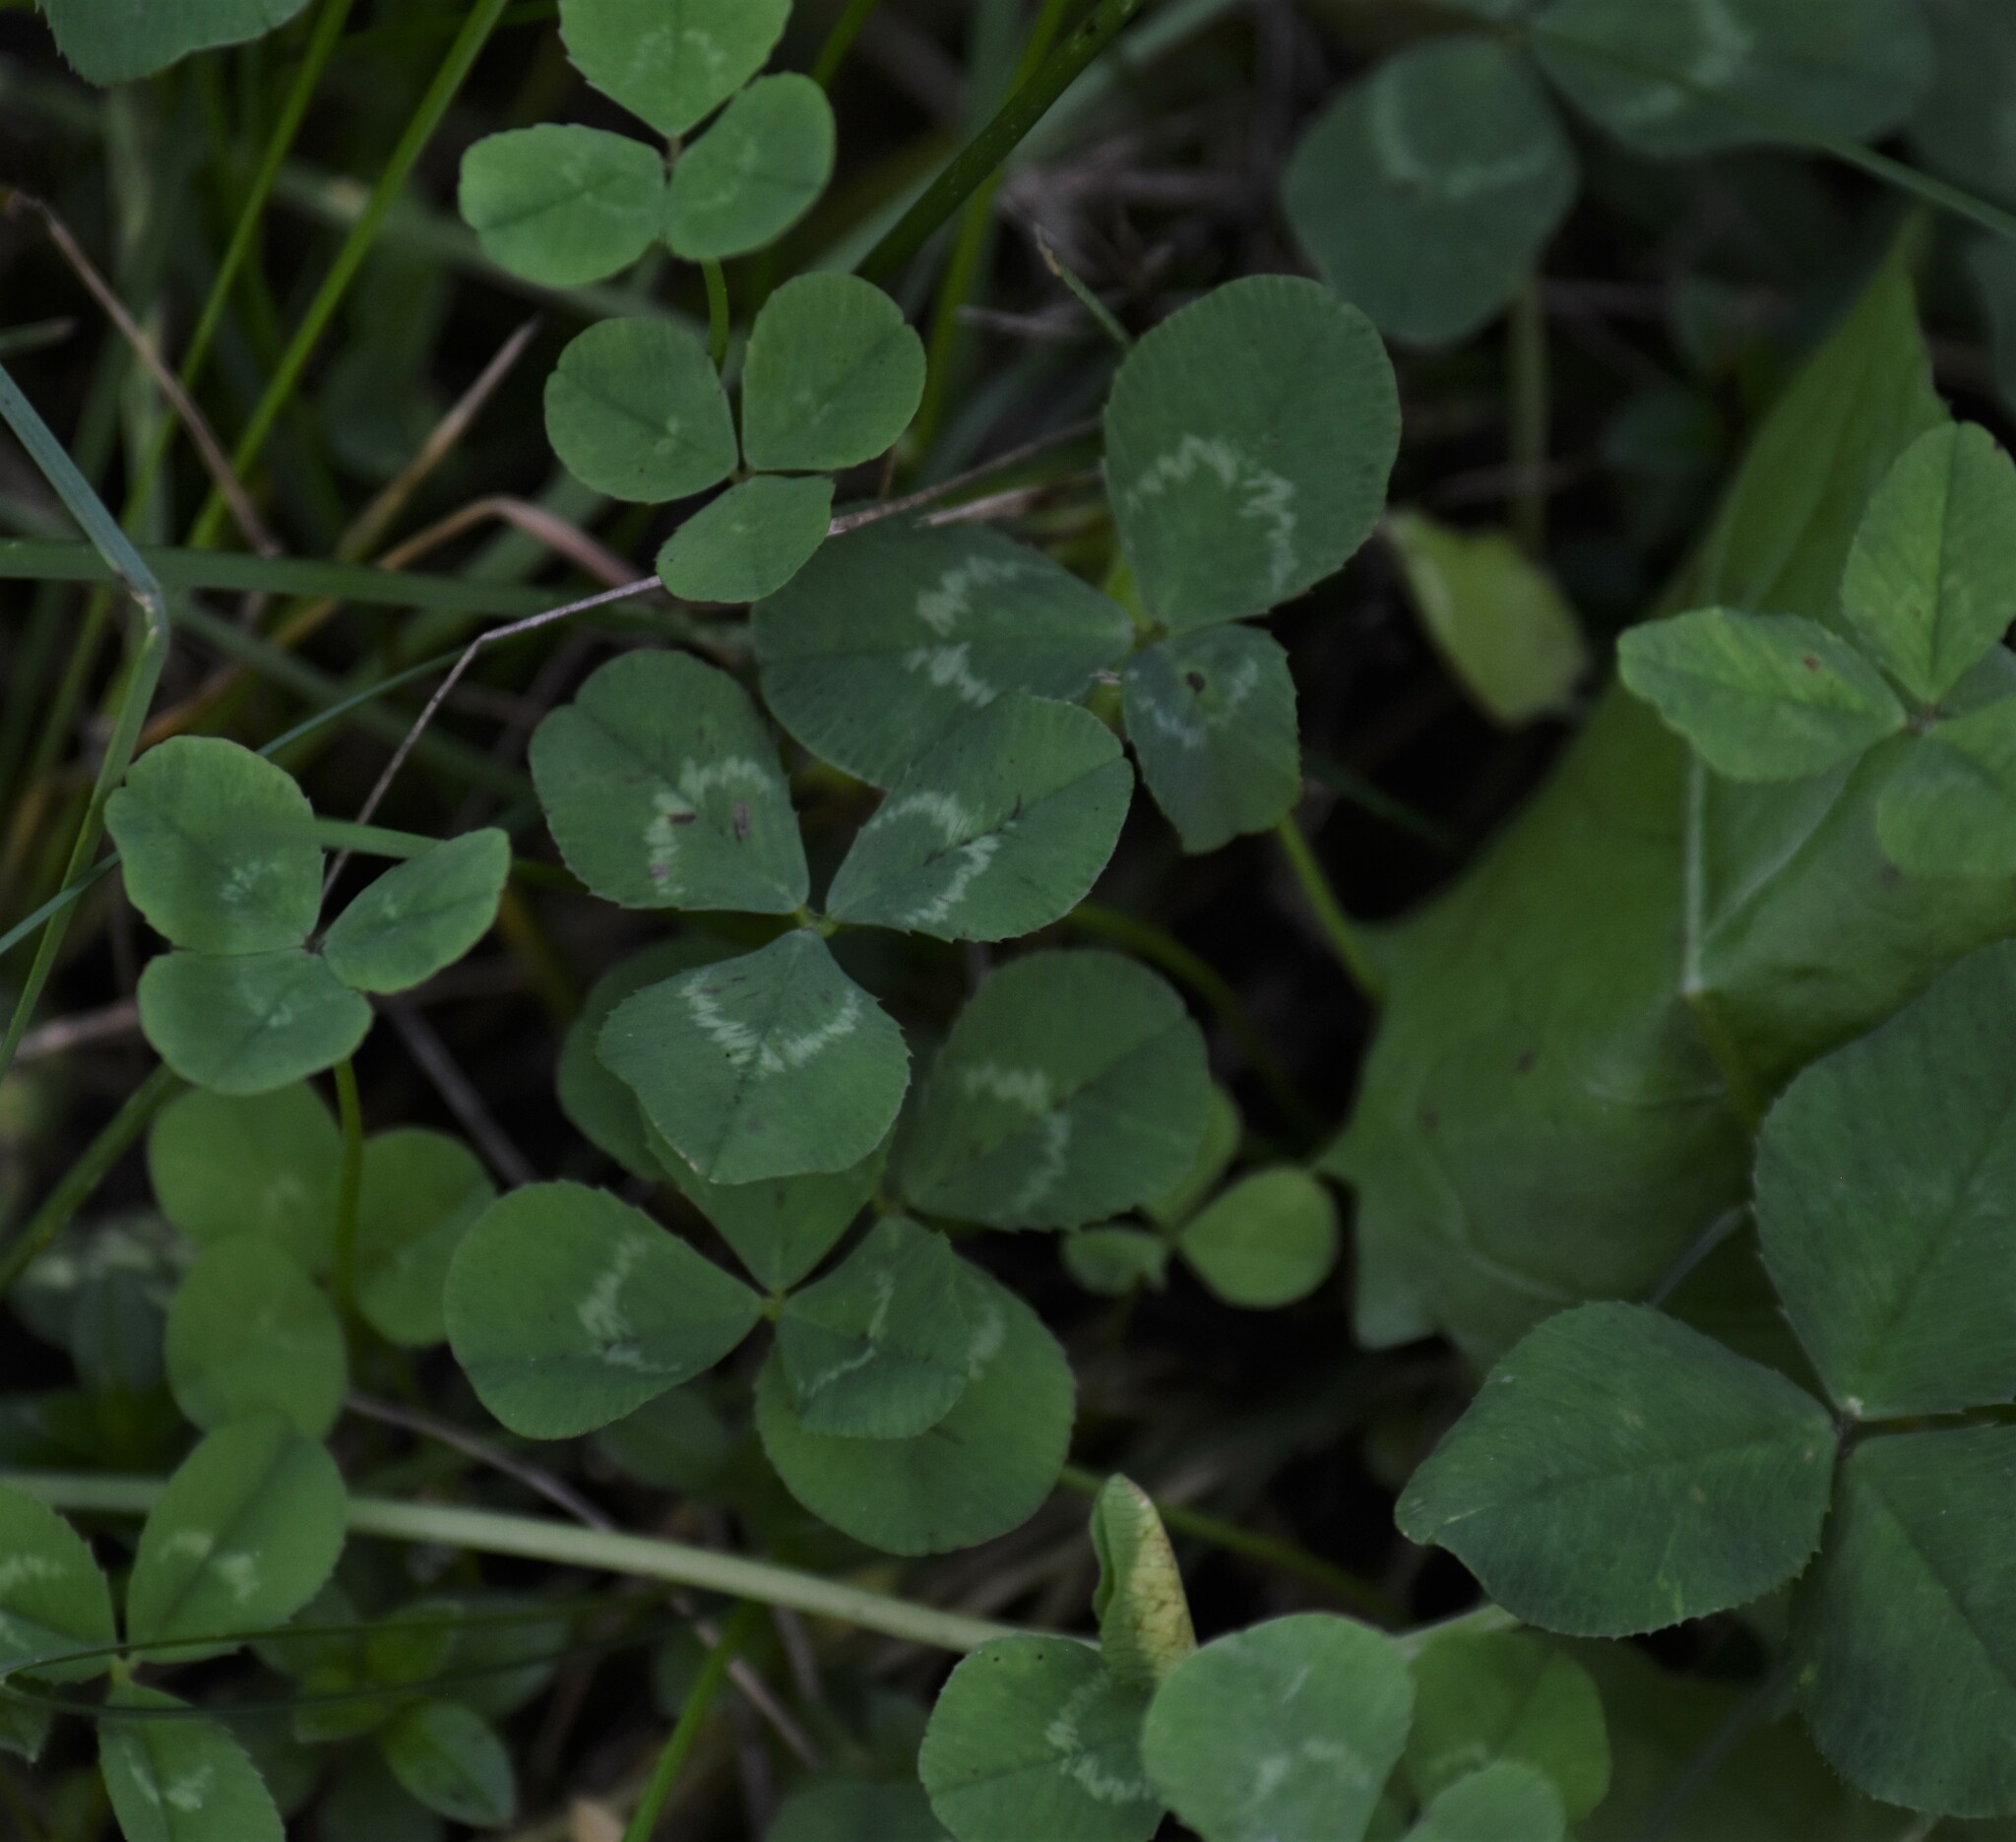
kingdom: Plantae
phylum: Tracheophyta
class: Magnoliopsida
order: Fabales
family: Fabaceae
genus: Trifolium
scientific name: Trifolium repens
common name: White clover
